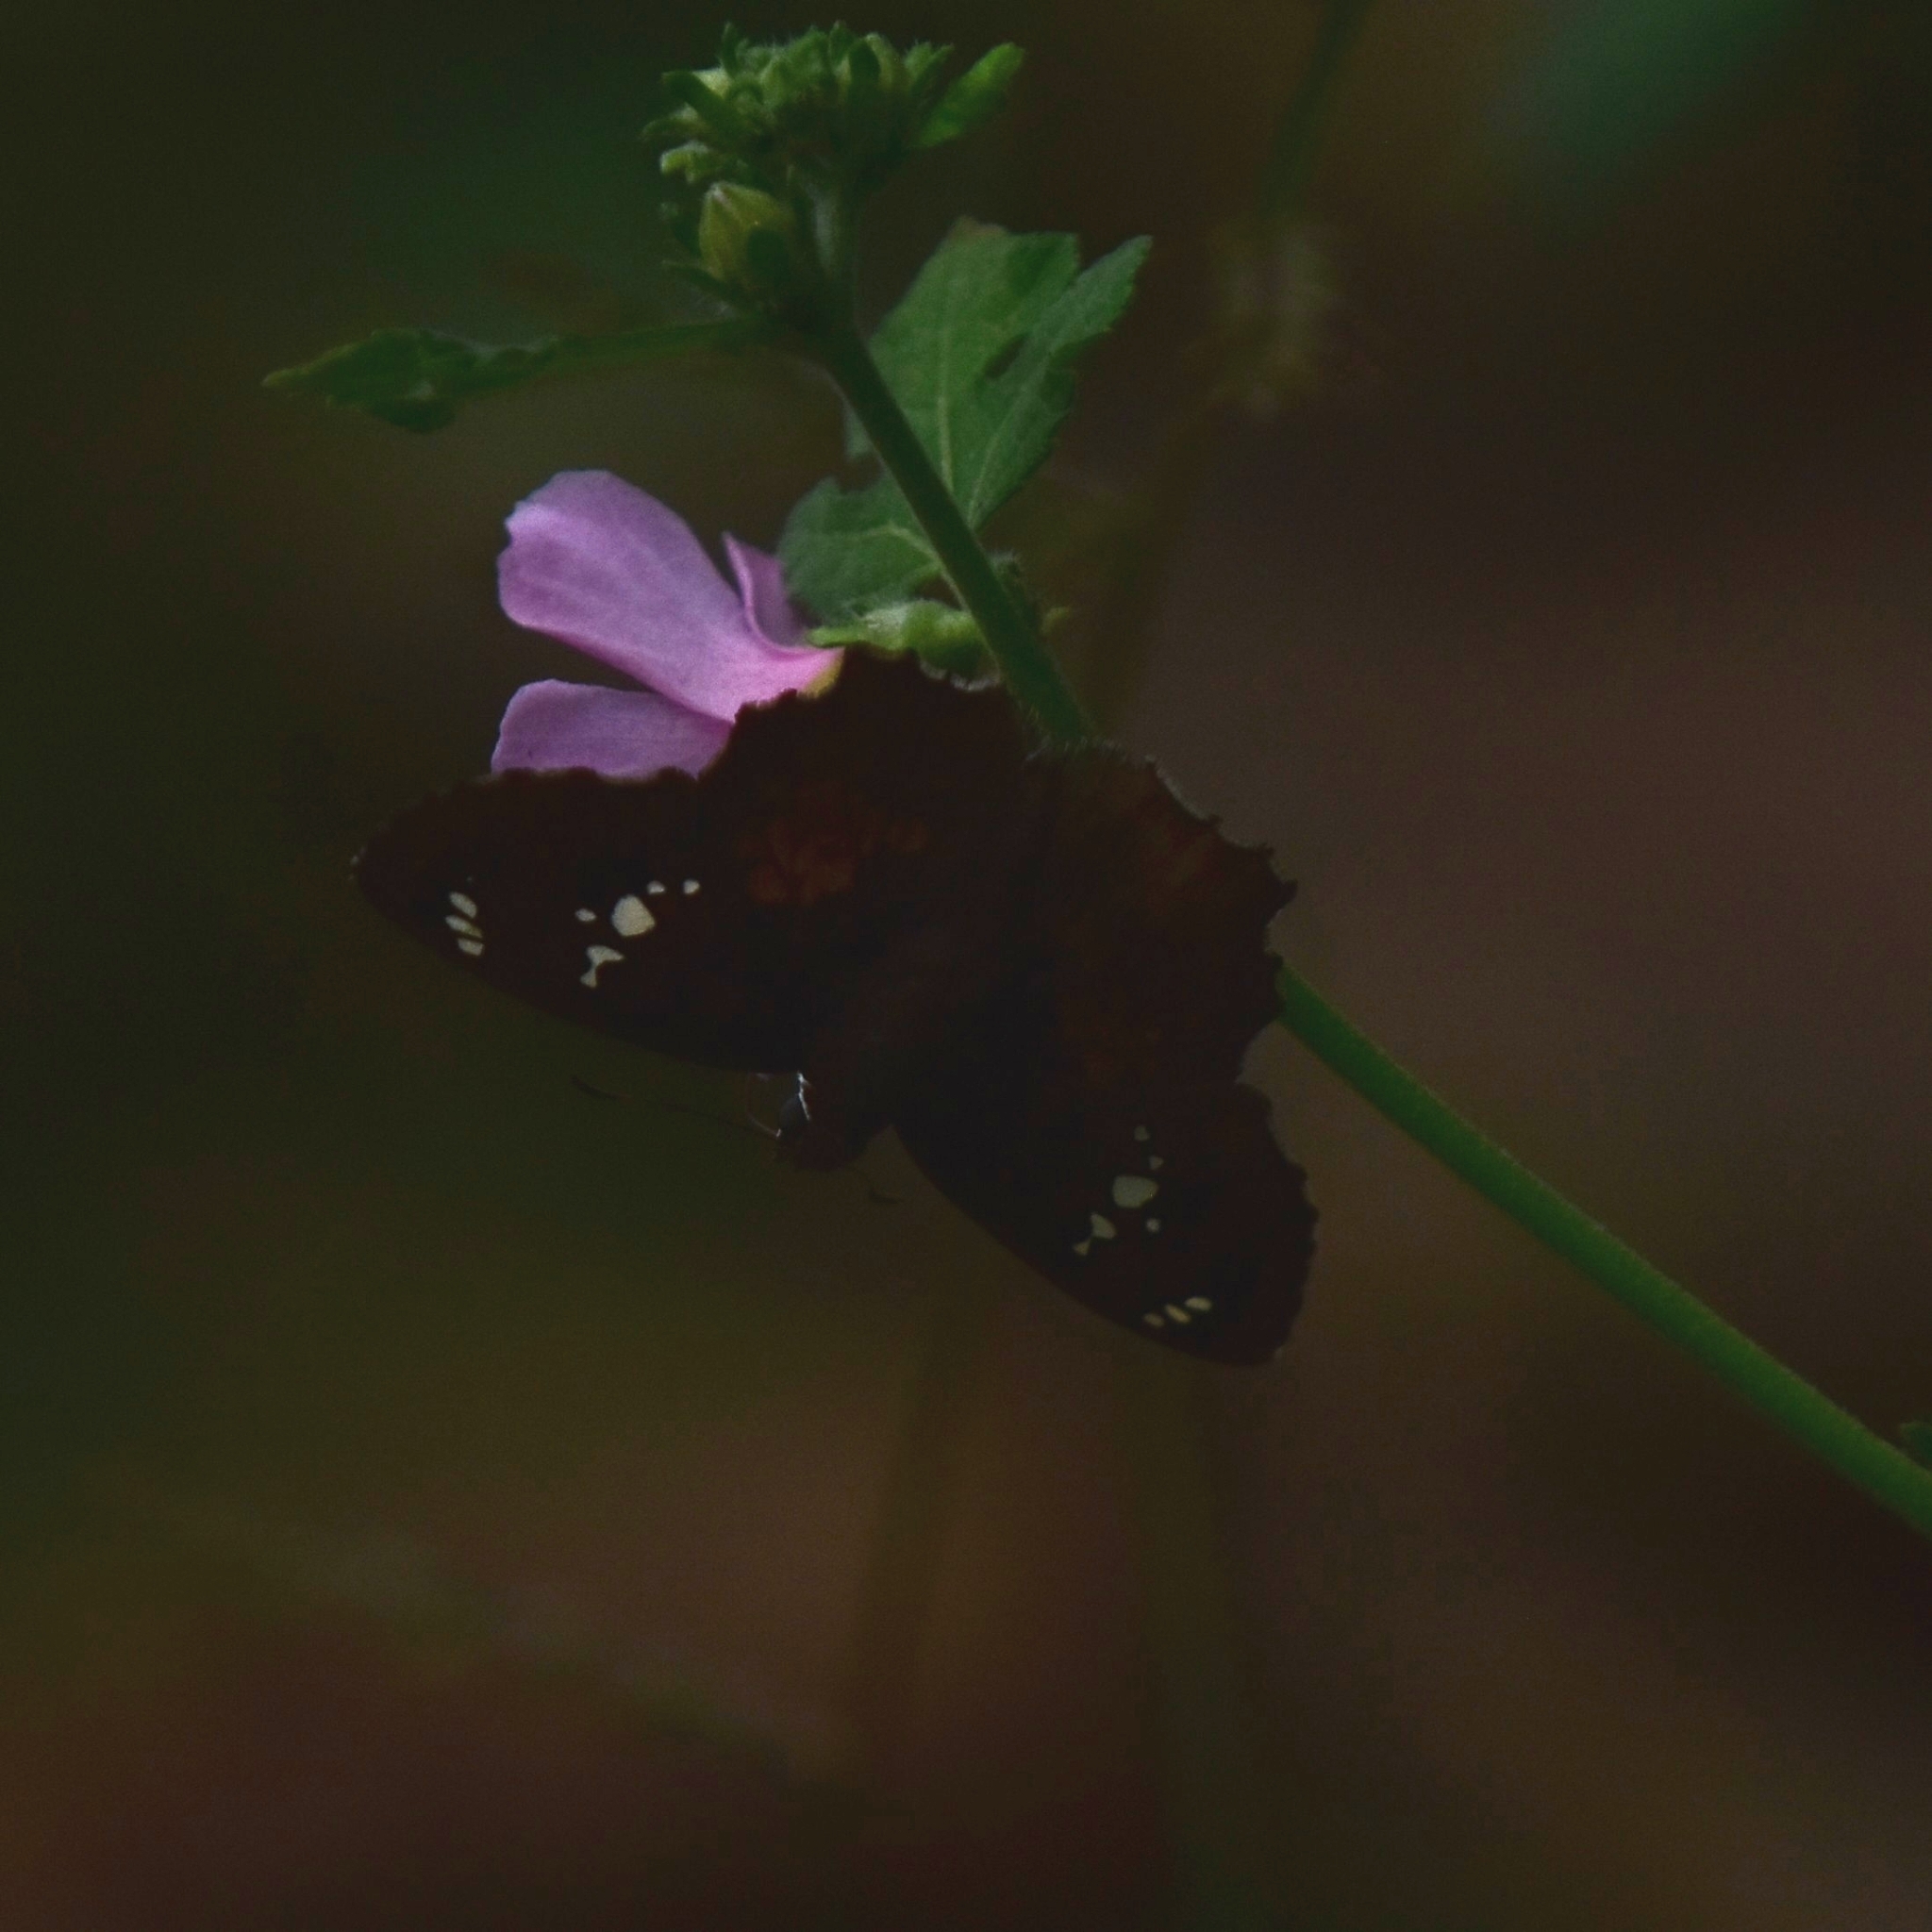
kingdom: Animalia
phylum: Arthropoda
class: Insecta
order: Lepidoptera
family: Hesperiidae
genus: Caprona
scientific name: Caprona ransonnettii
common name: Golden angle
